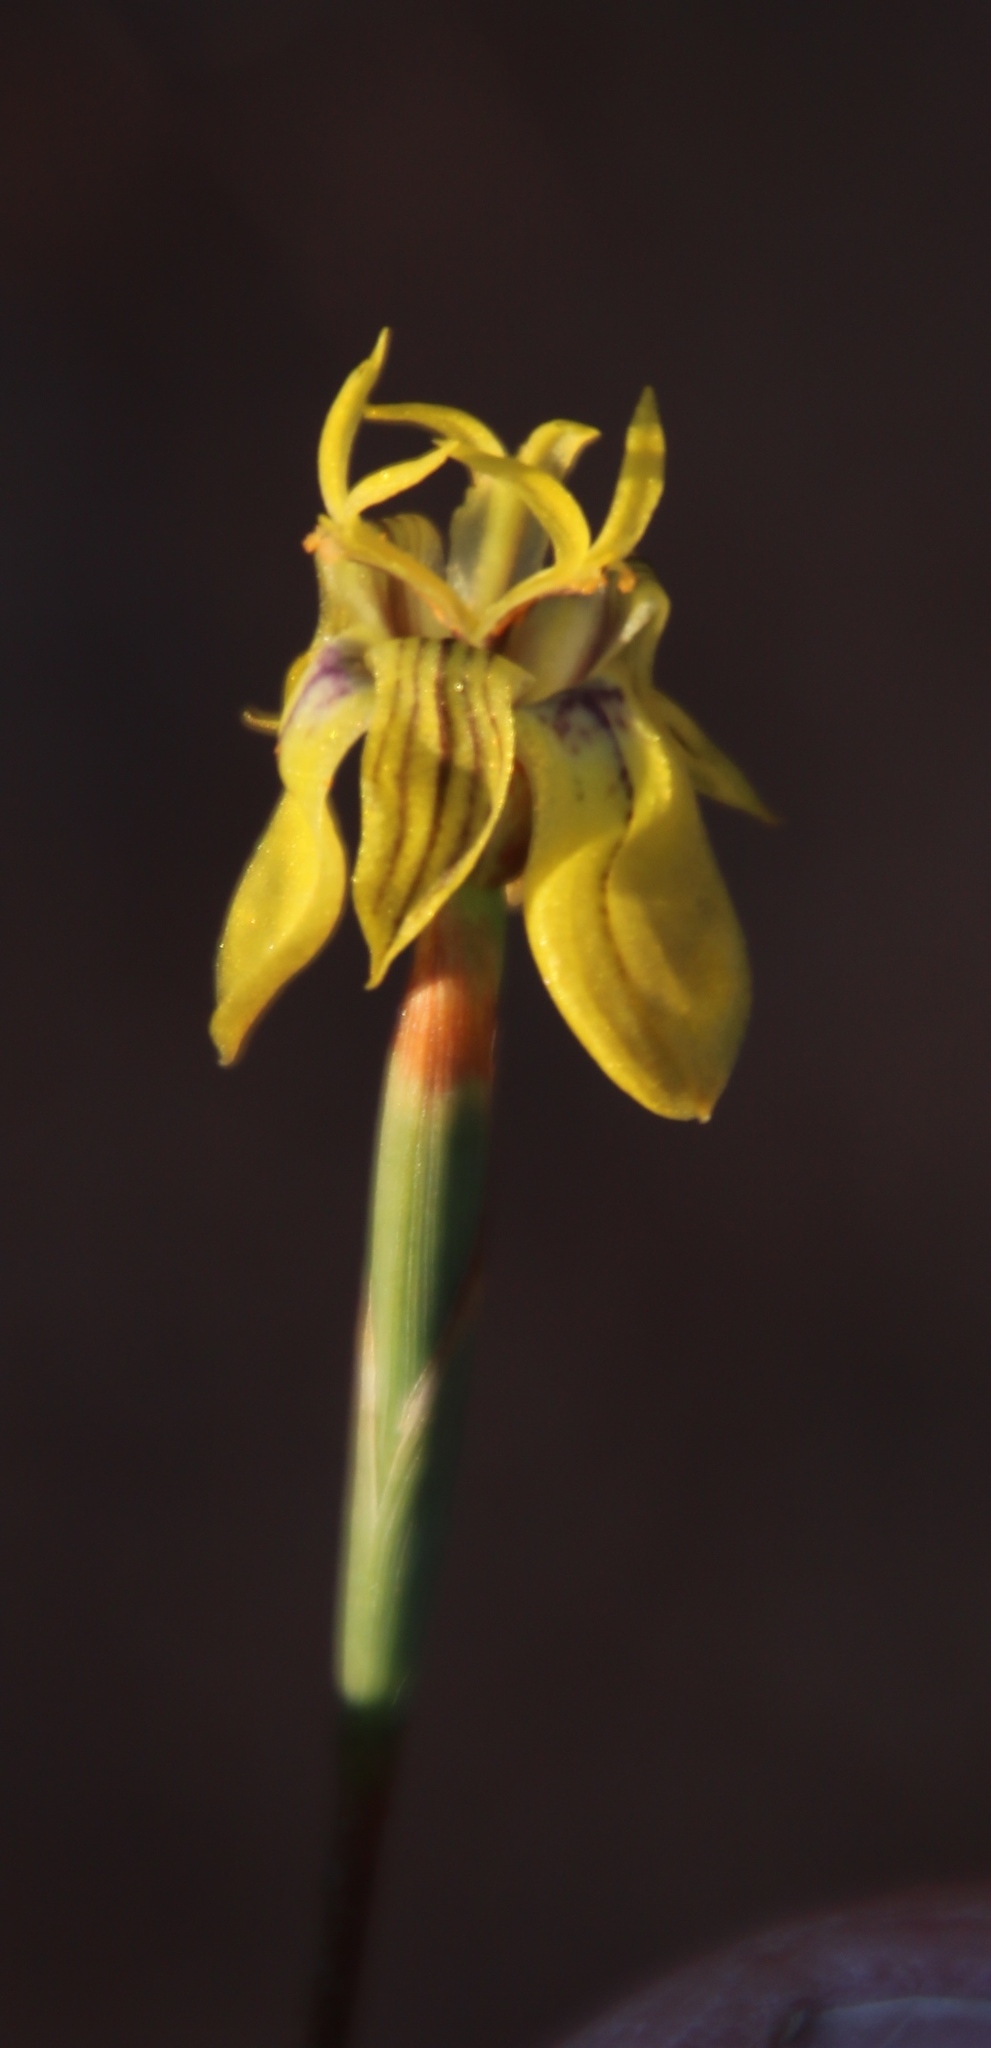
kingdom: Plantae
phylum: Tracheophyta
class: Liliopsida
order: Asparagales
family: Iridaceae
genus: Moraea
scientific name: Moraea inconspicua
